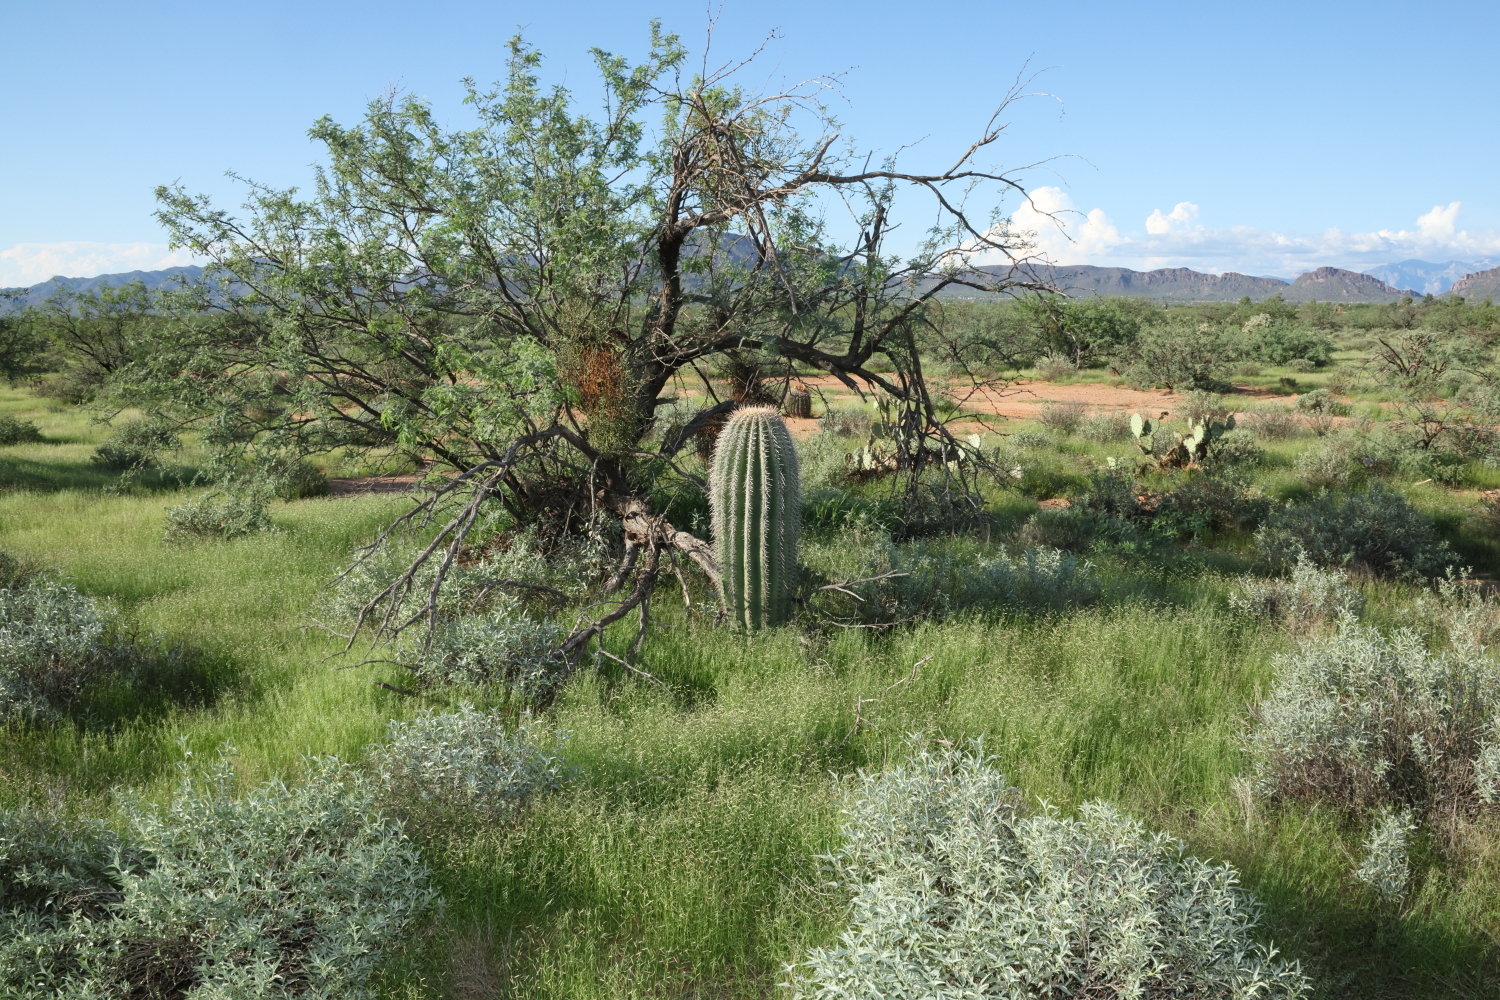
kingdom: Plantae
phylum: Tracheophyta
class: Magnoliopsida
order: Caryophyllales
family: Cactaceae
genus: Carnegiea
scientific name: Carnegiea gigantea
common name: Saguaro
